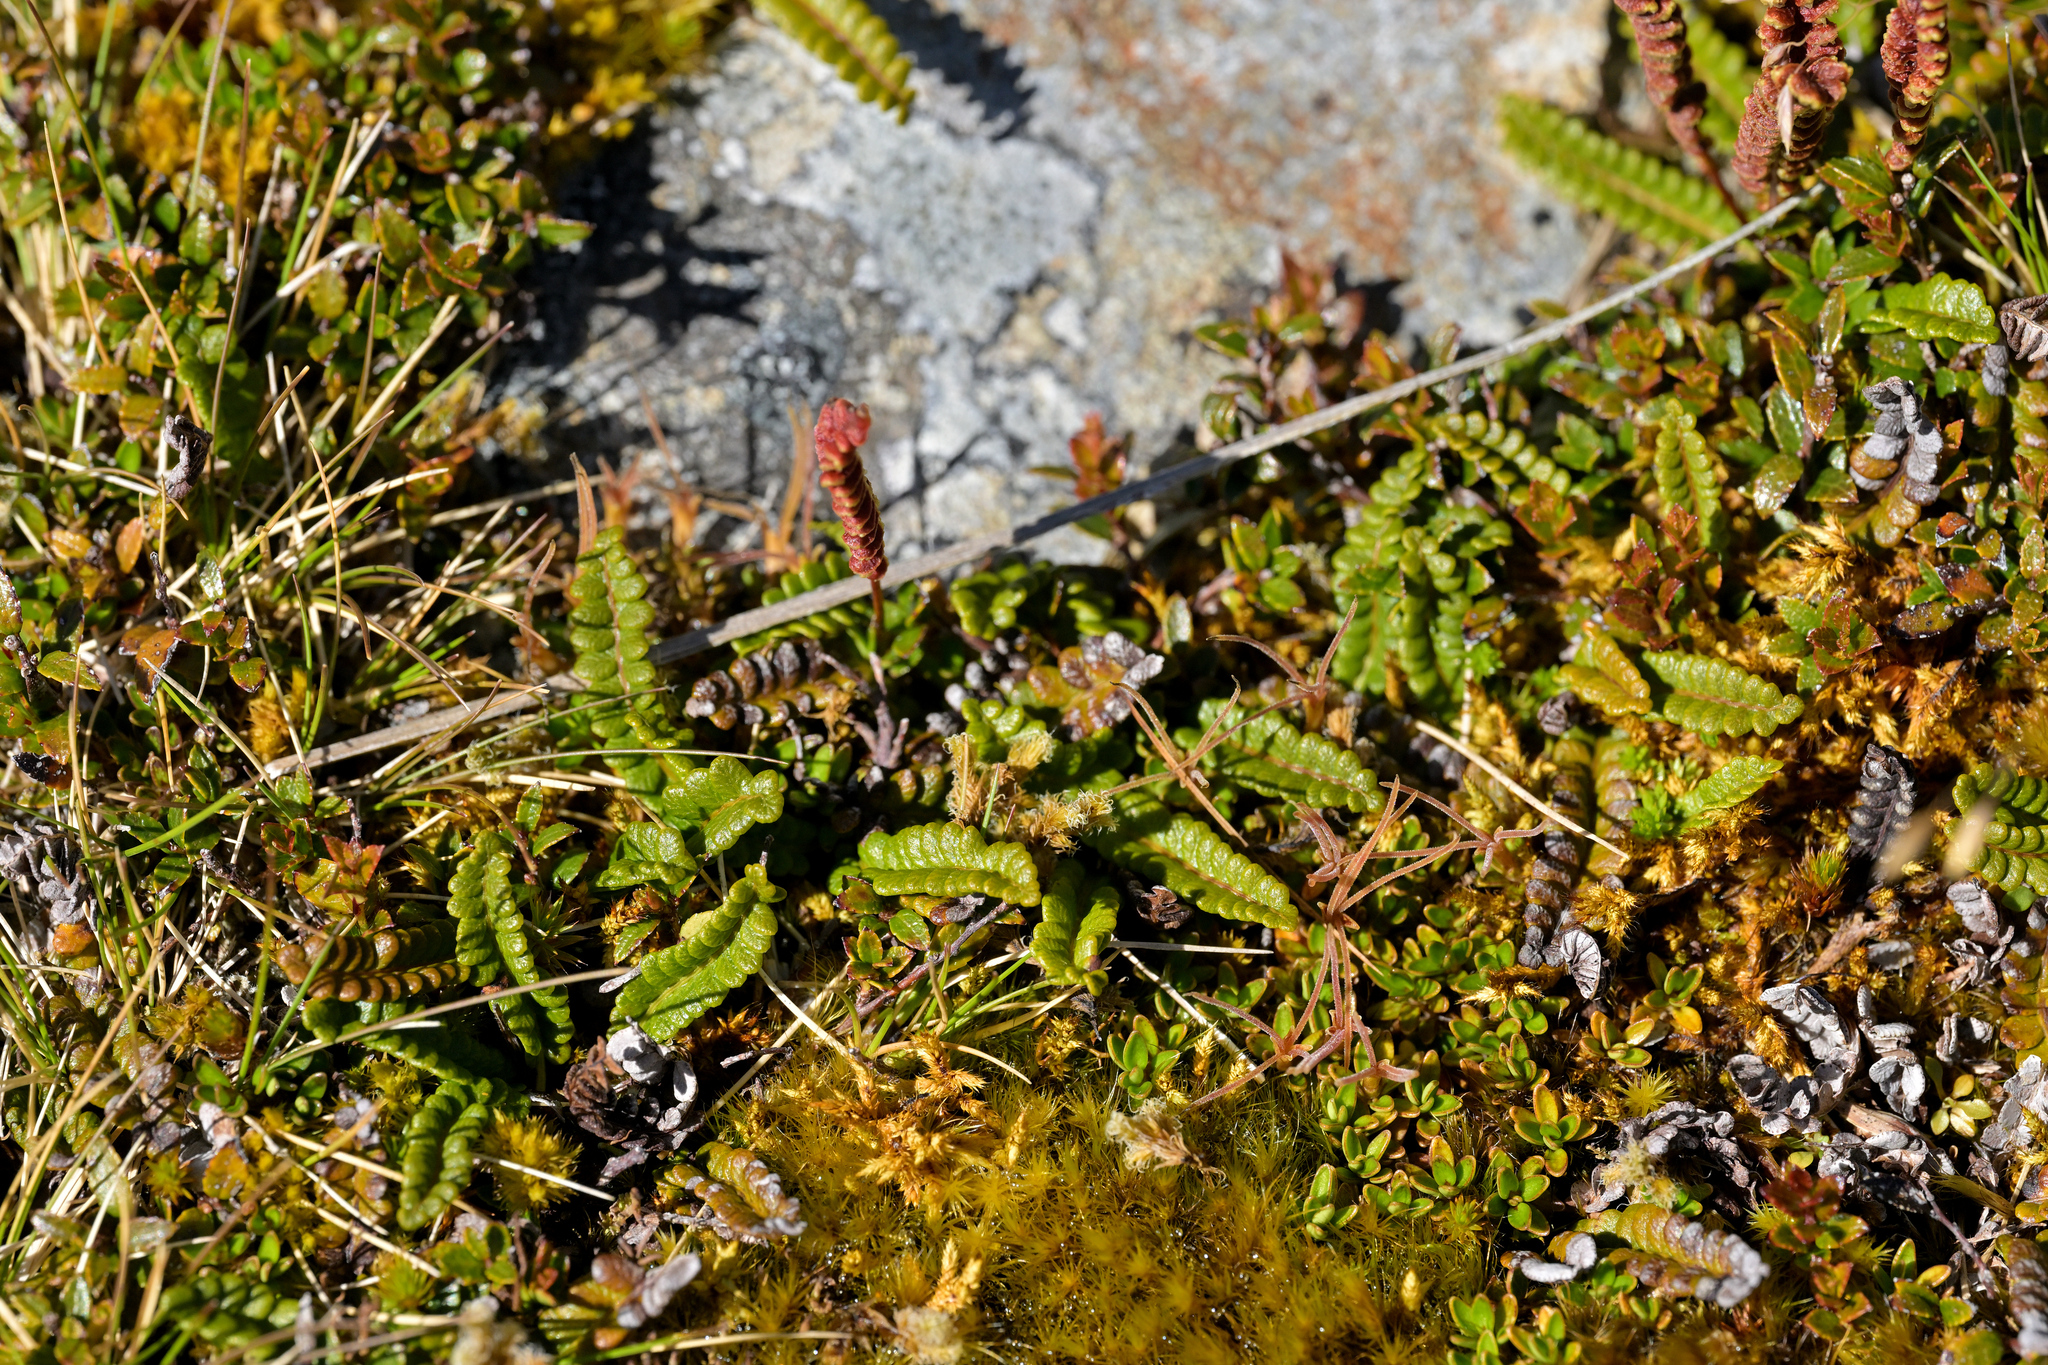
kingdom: Plantae
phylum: Tracheophyta
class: Polypodiopsida
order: Polypodiales
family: Blechnaceae
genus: Austroblechnum
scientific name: Austroblechnum penna-marina
